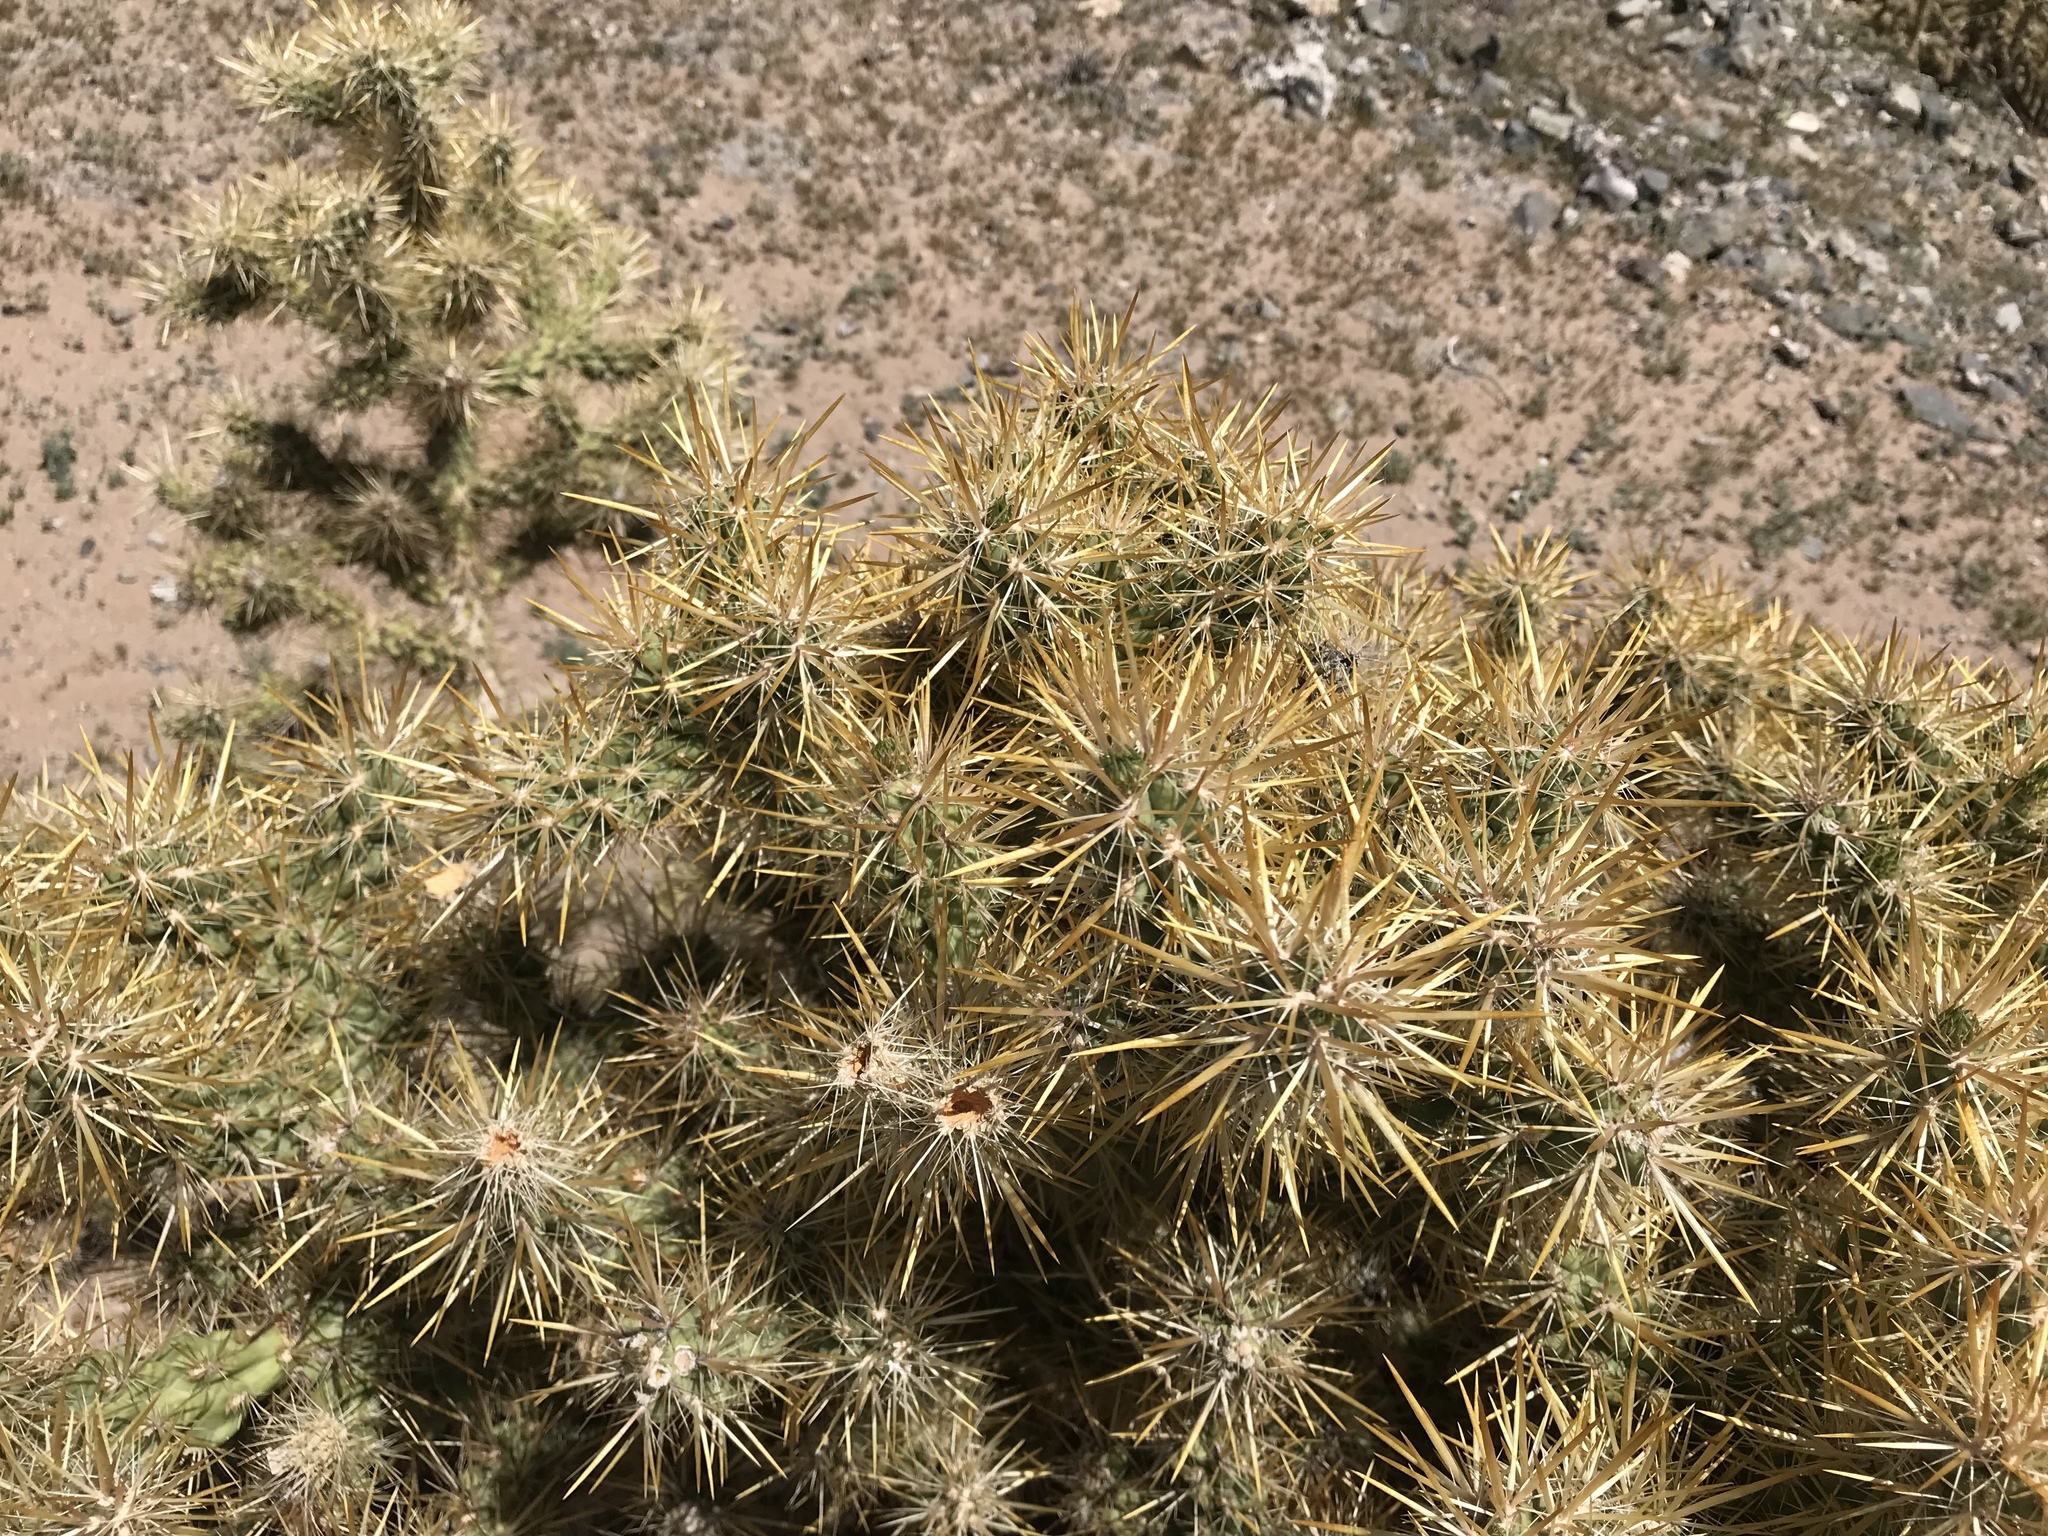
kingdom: Plantae
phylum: Tracheophyta
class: Magnoliopsida
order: Caryophyllales
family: Cactaceae
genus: Cylindropuntia
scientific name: Cylindropuntia echinocarpa
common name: Ground cholla
